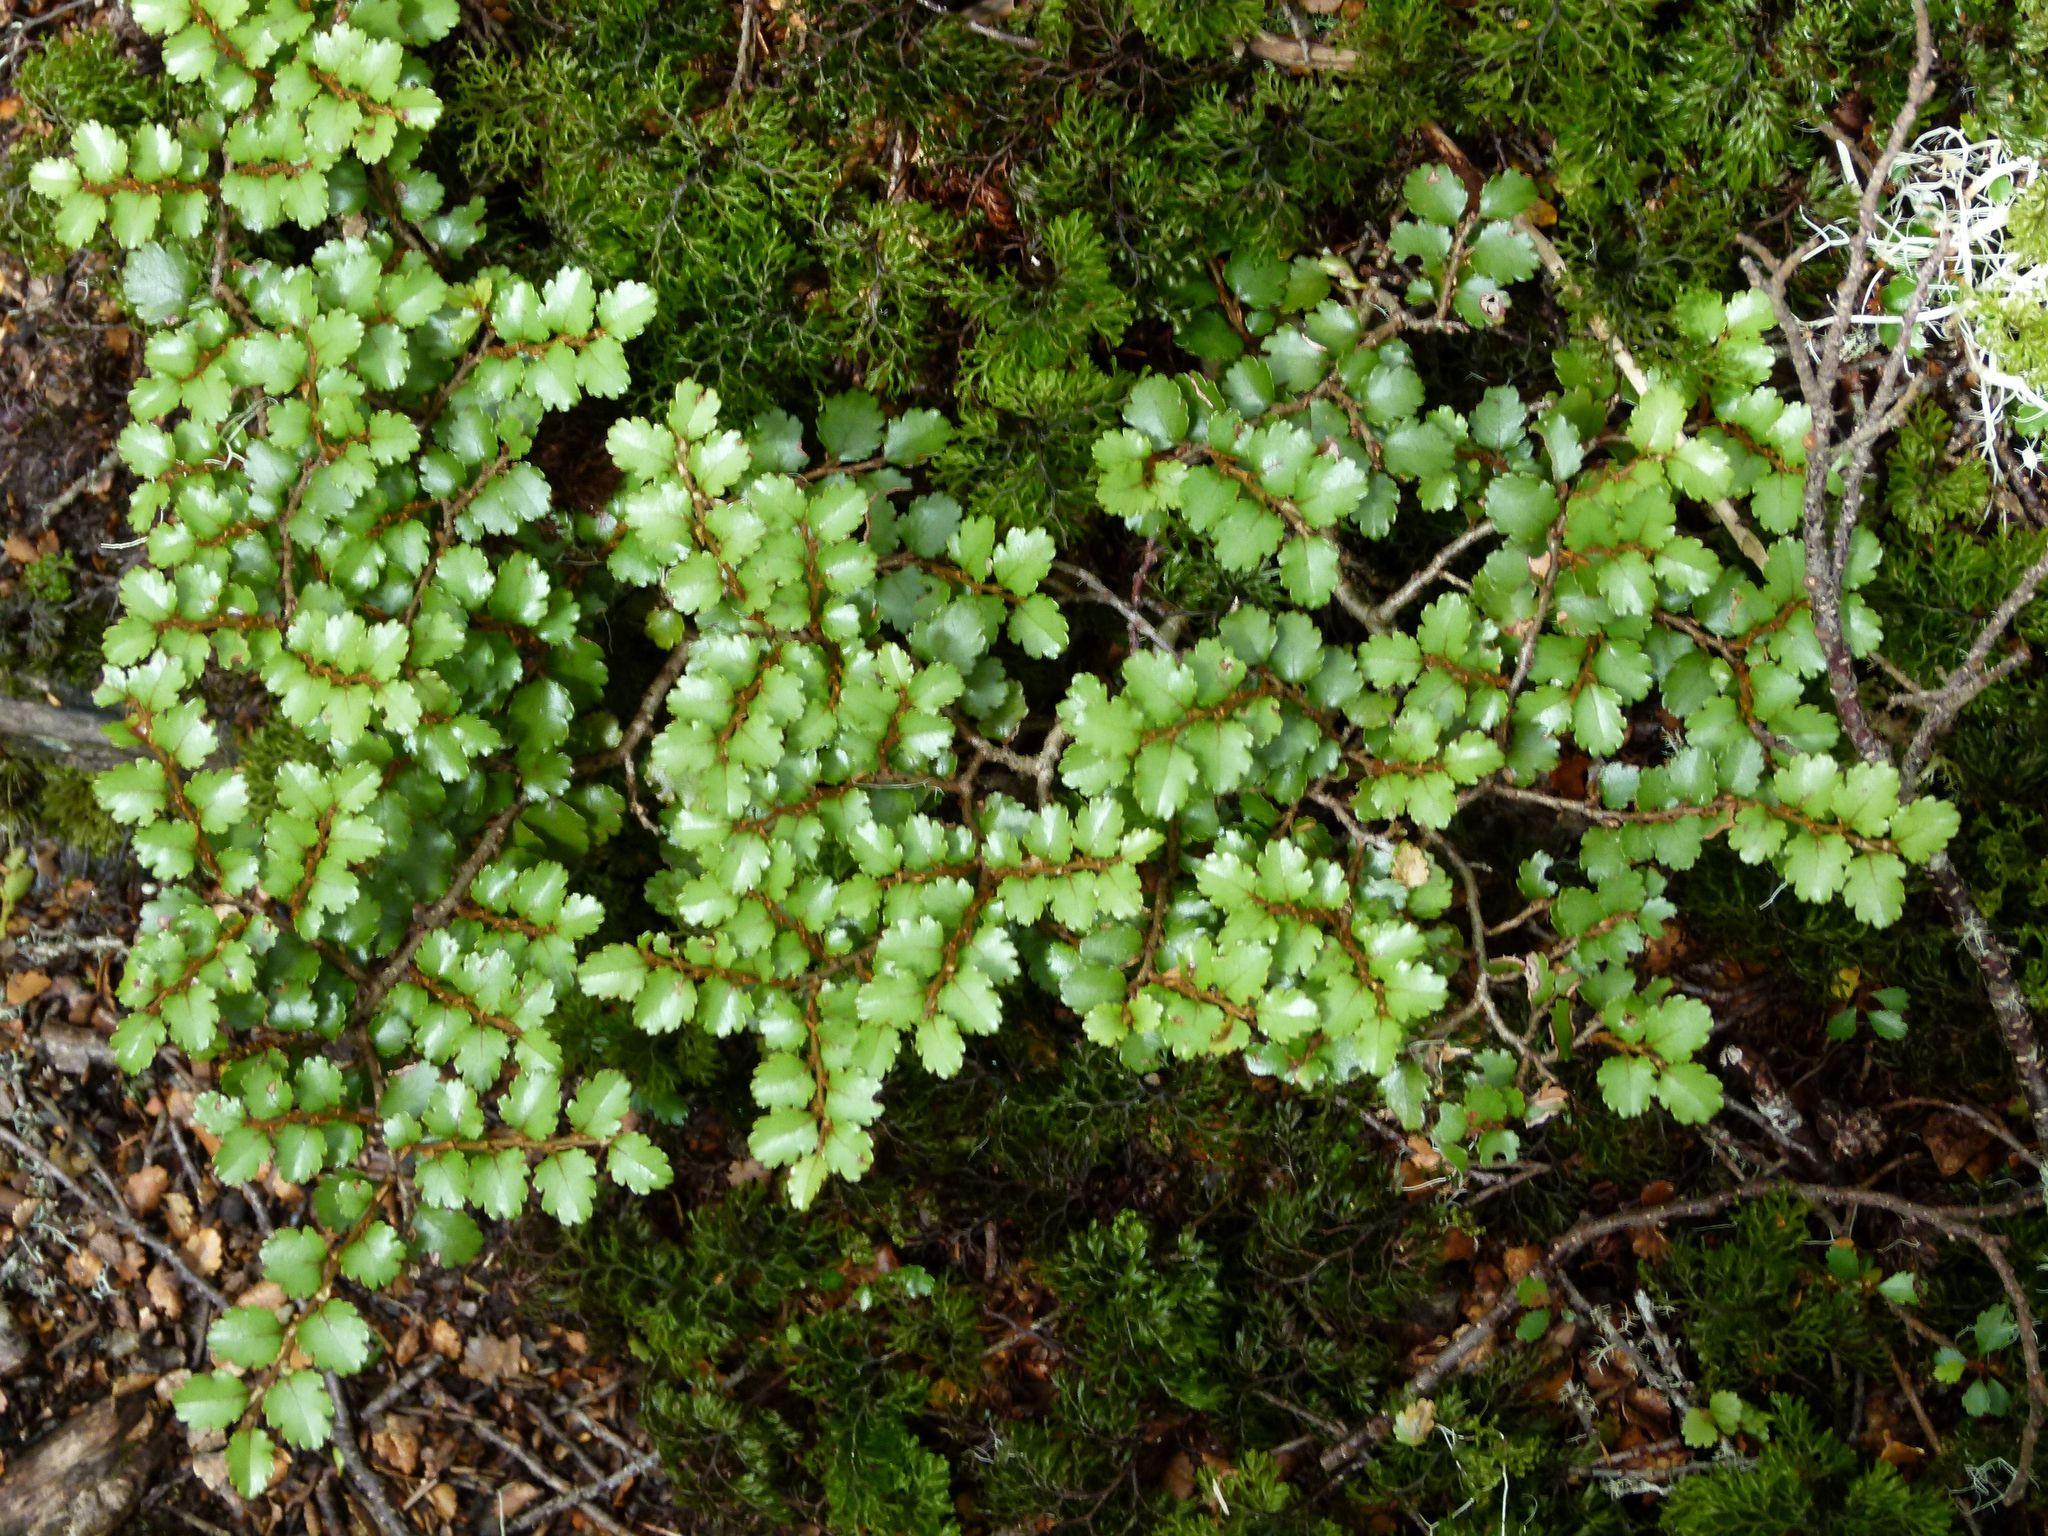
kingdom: Plantae
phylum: Tracheophyta
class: Magnoliopsida
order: Fagales
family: Nothofagaceae
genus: Nothofagus
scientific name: Nothofagus menziesii
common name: Silver beech
